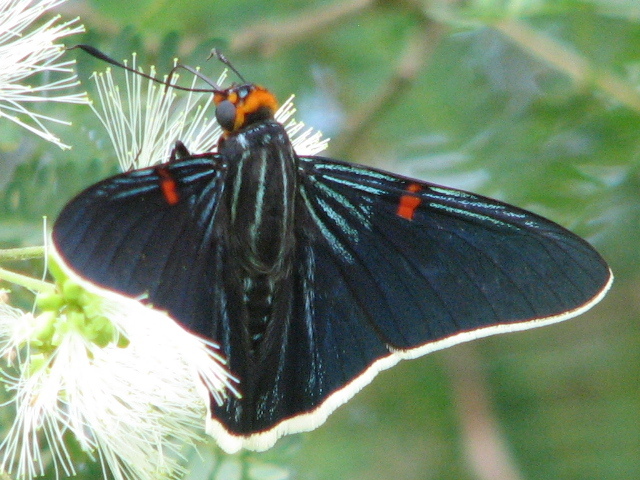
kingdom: Animalia
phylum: Arthropoda
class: Insecta
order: Lepidoptera
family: Hesperiidae
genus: Phocides
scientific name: Phocides lilea
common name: Guava skipper
